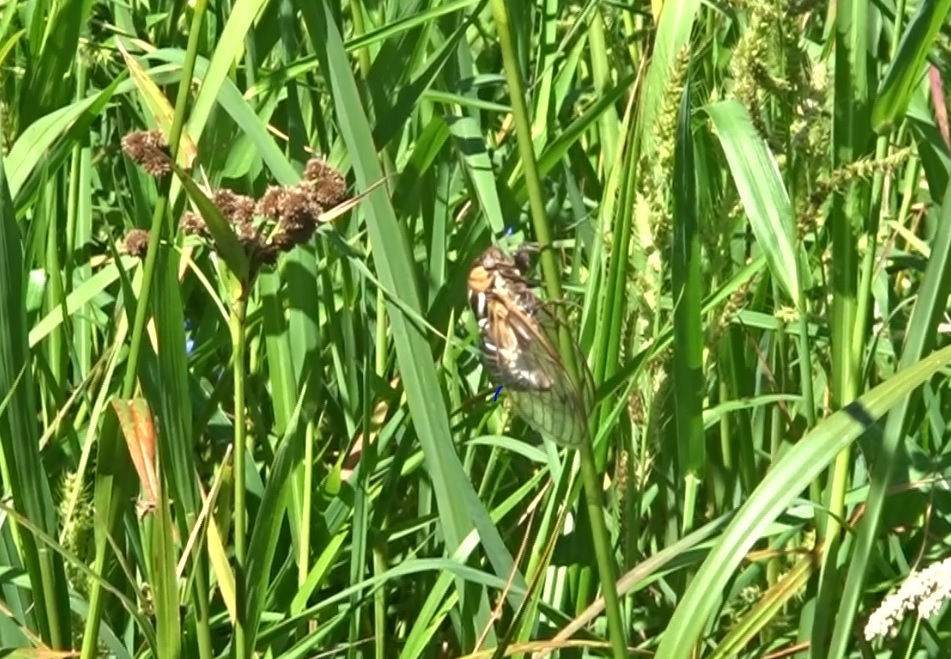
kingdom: Animalia
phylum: Arthropoda
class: Insecta
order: Hemiptera
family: Cicadidae
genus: Megatibicen
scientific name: Megatibicen dorsatus
